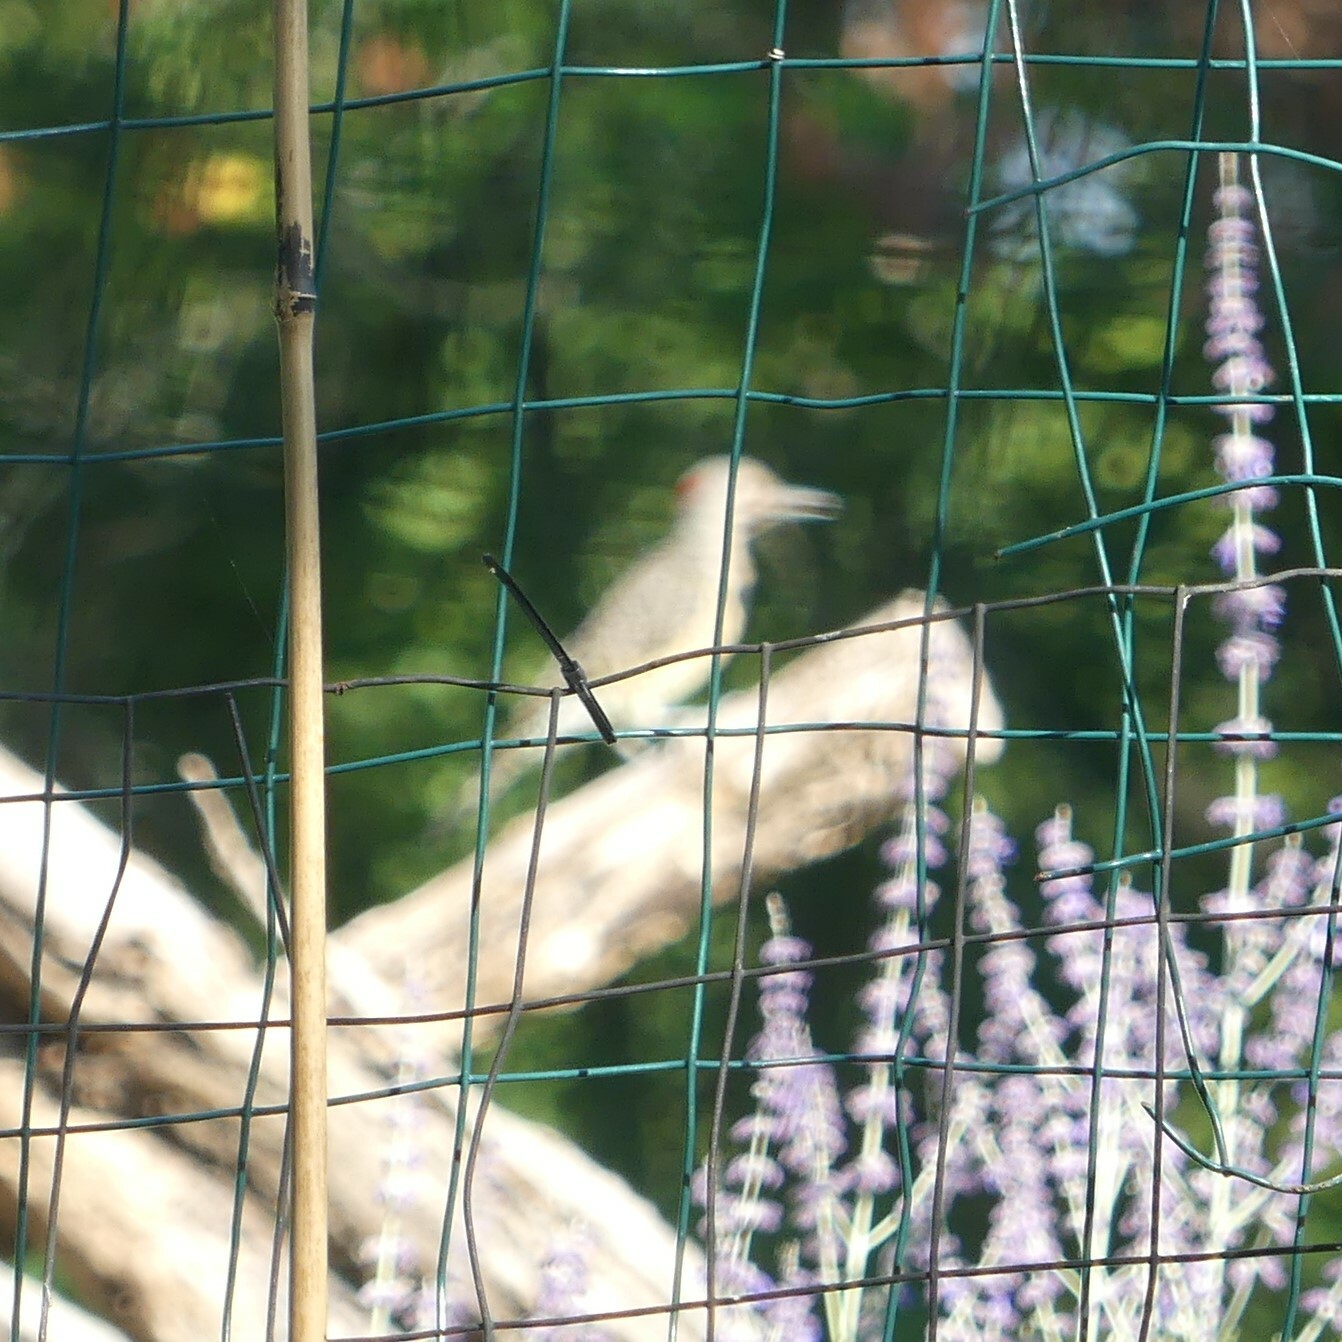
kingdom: Animalia
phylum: Chordata
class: Aves
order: Piciformes
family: Picidae
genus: Colaptes
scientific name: Colaptes auratus
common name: Northern flicker
